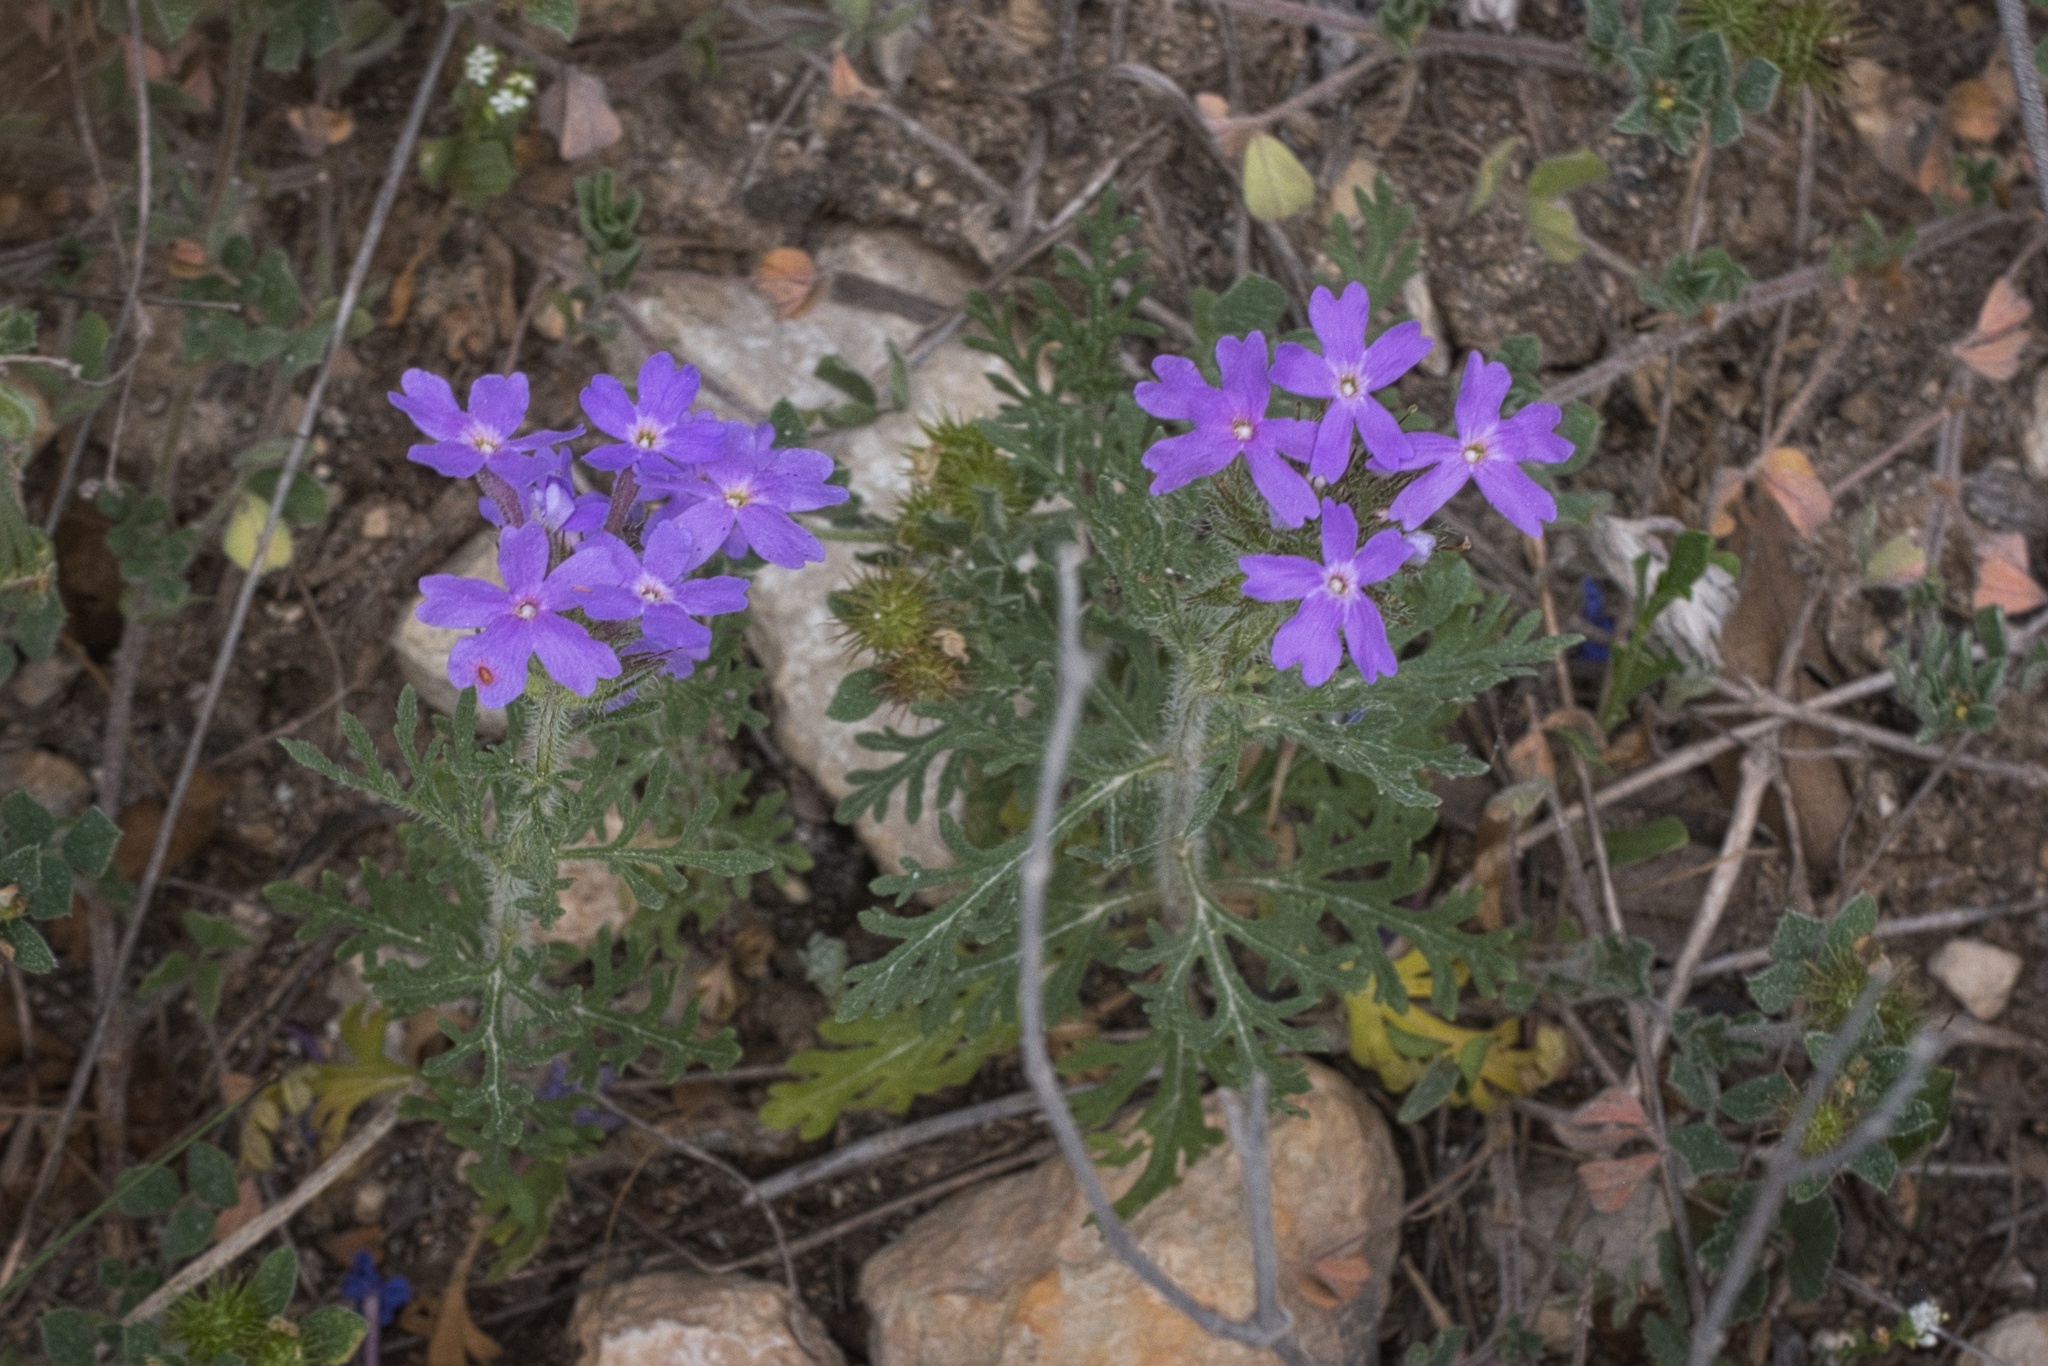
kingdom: Plantae
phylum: Tracheophyta
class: Magnoliopsida
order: Lamiales
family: Verbenaceae
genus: Verbena
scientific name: Verbena bipinnatifida
